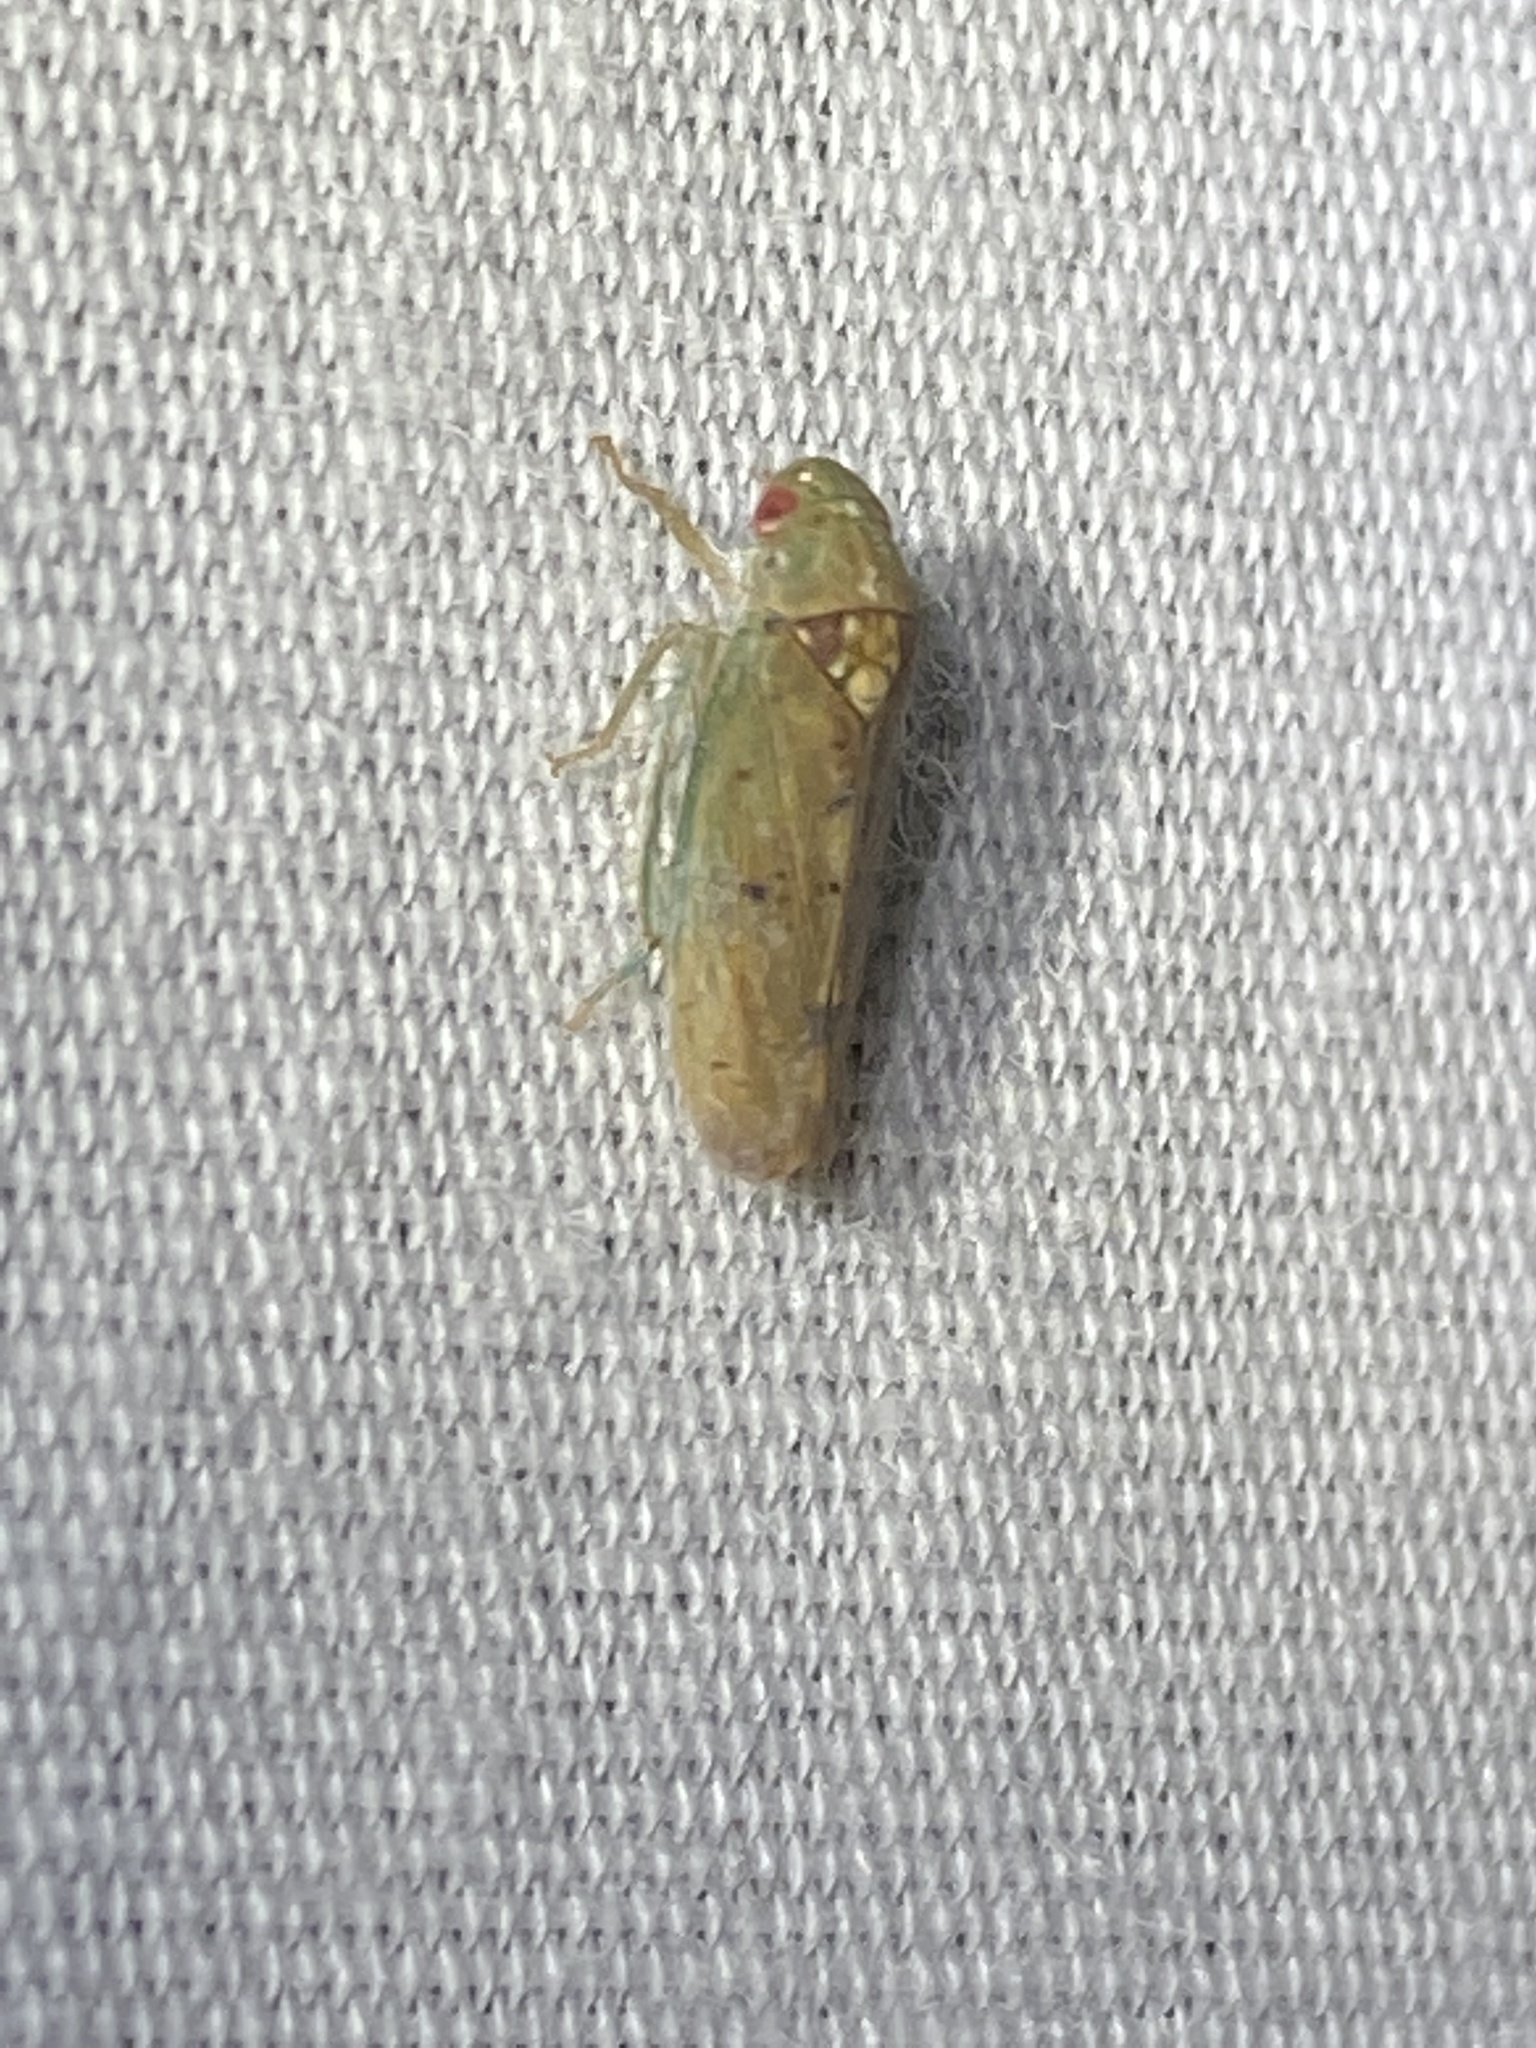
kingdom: Animalia
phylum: Arthropoda
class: Insecta
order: Hemiptera
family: Cicadellidae
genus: Ponana
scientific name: Ponana quadralaba
